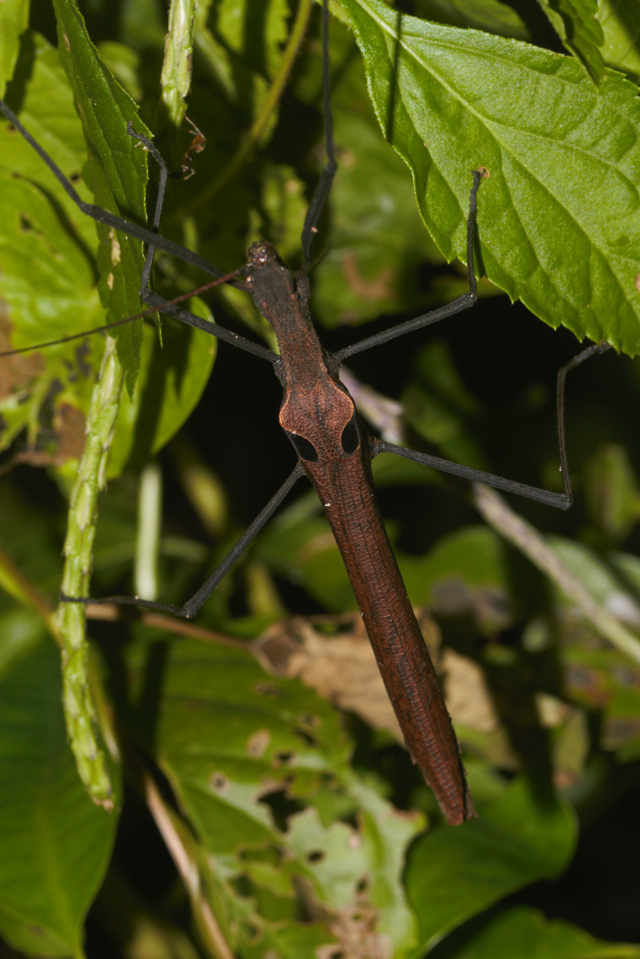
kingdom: Animalia
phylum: Arthropoda
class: Insecta
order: Phasmida
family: Pseudophasmatidae
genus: Pseudophasma
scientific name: Pseudophasma phthisicum
